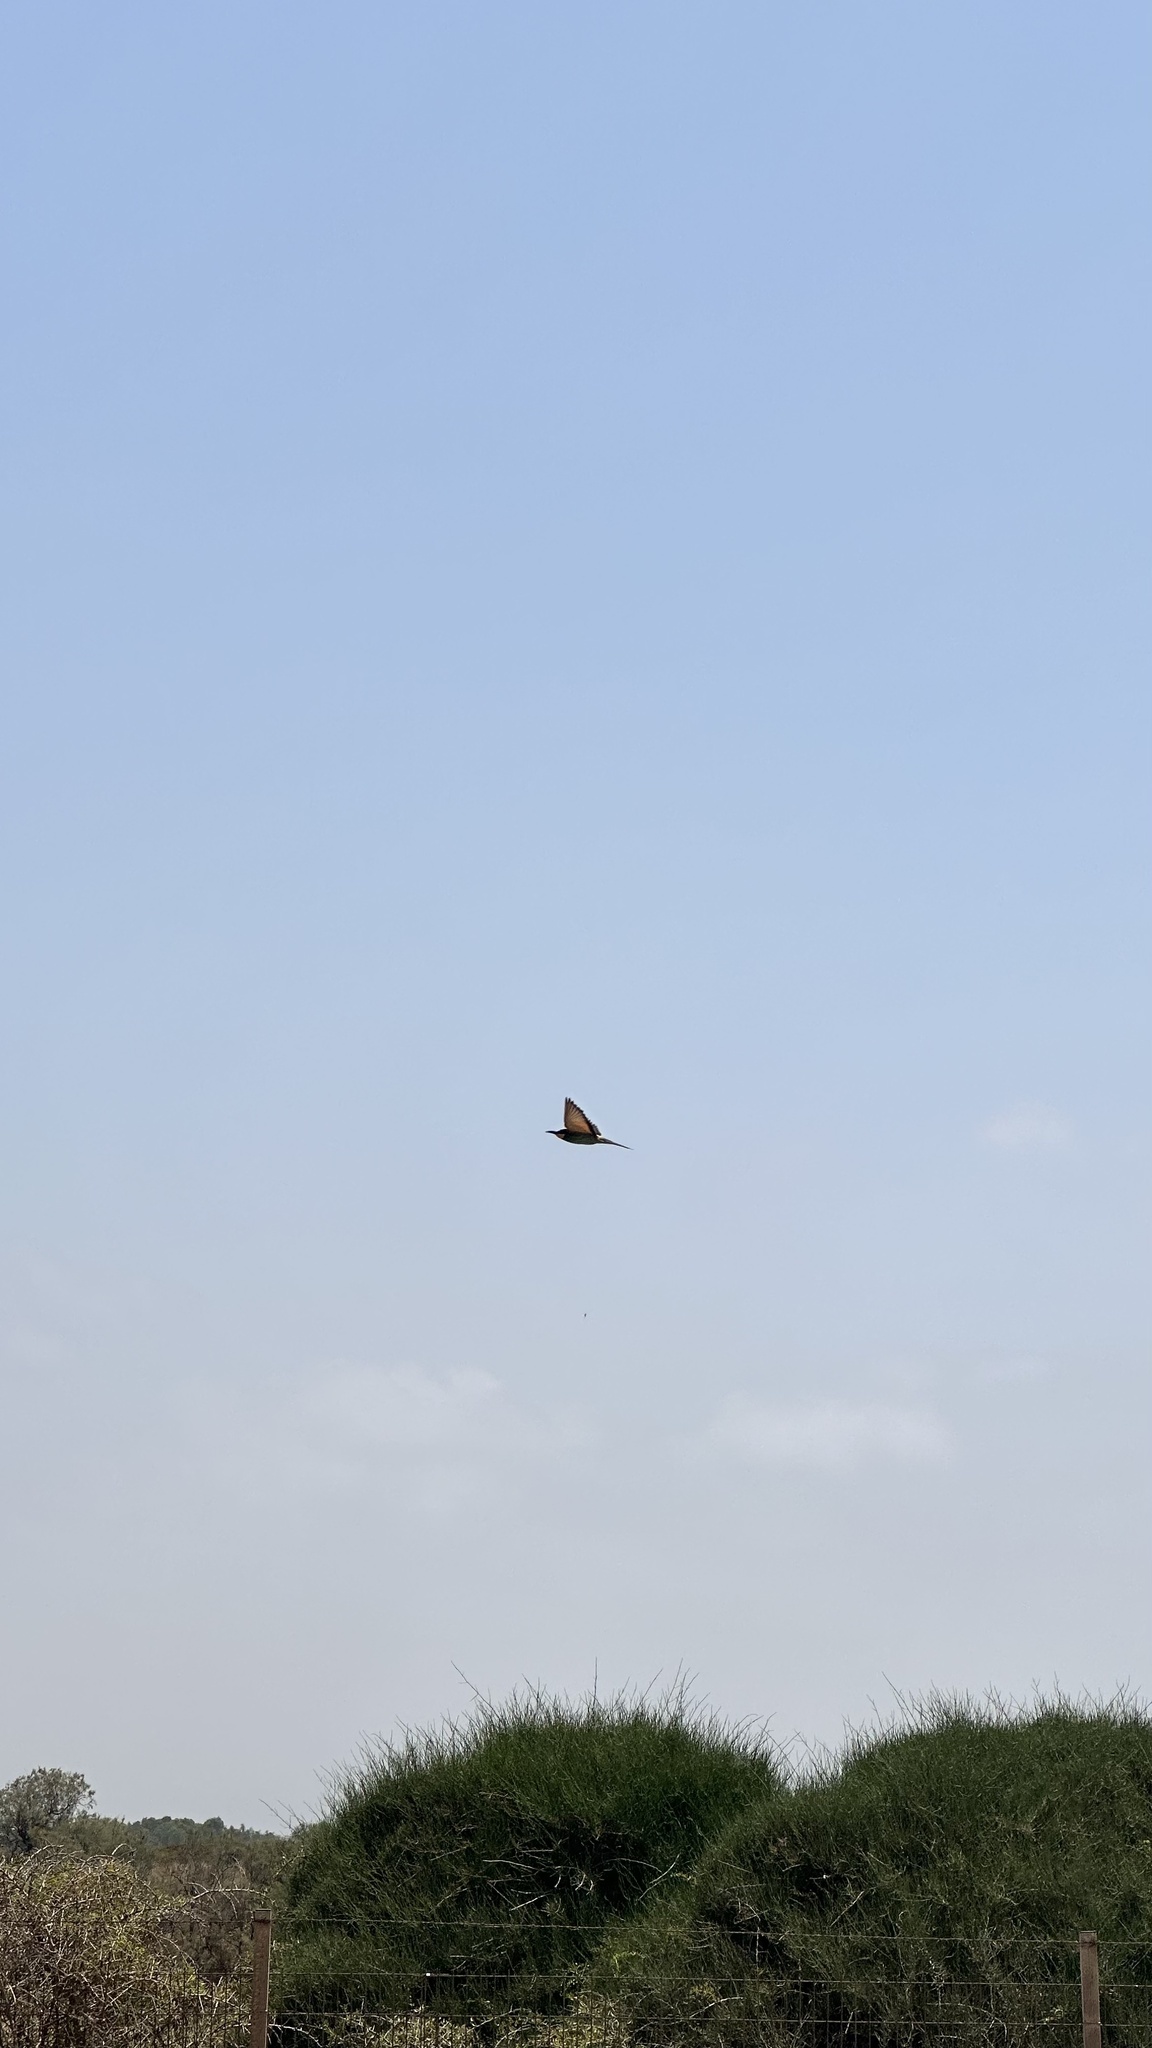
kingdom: Animalia
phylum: Chordata
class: Aves
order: Coraciiformes
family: Meropidae
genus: Merops
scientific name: Merops apiaster
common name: European bee-eater
